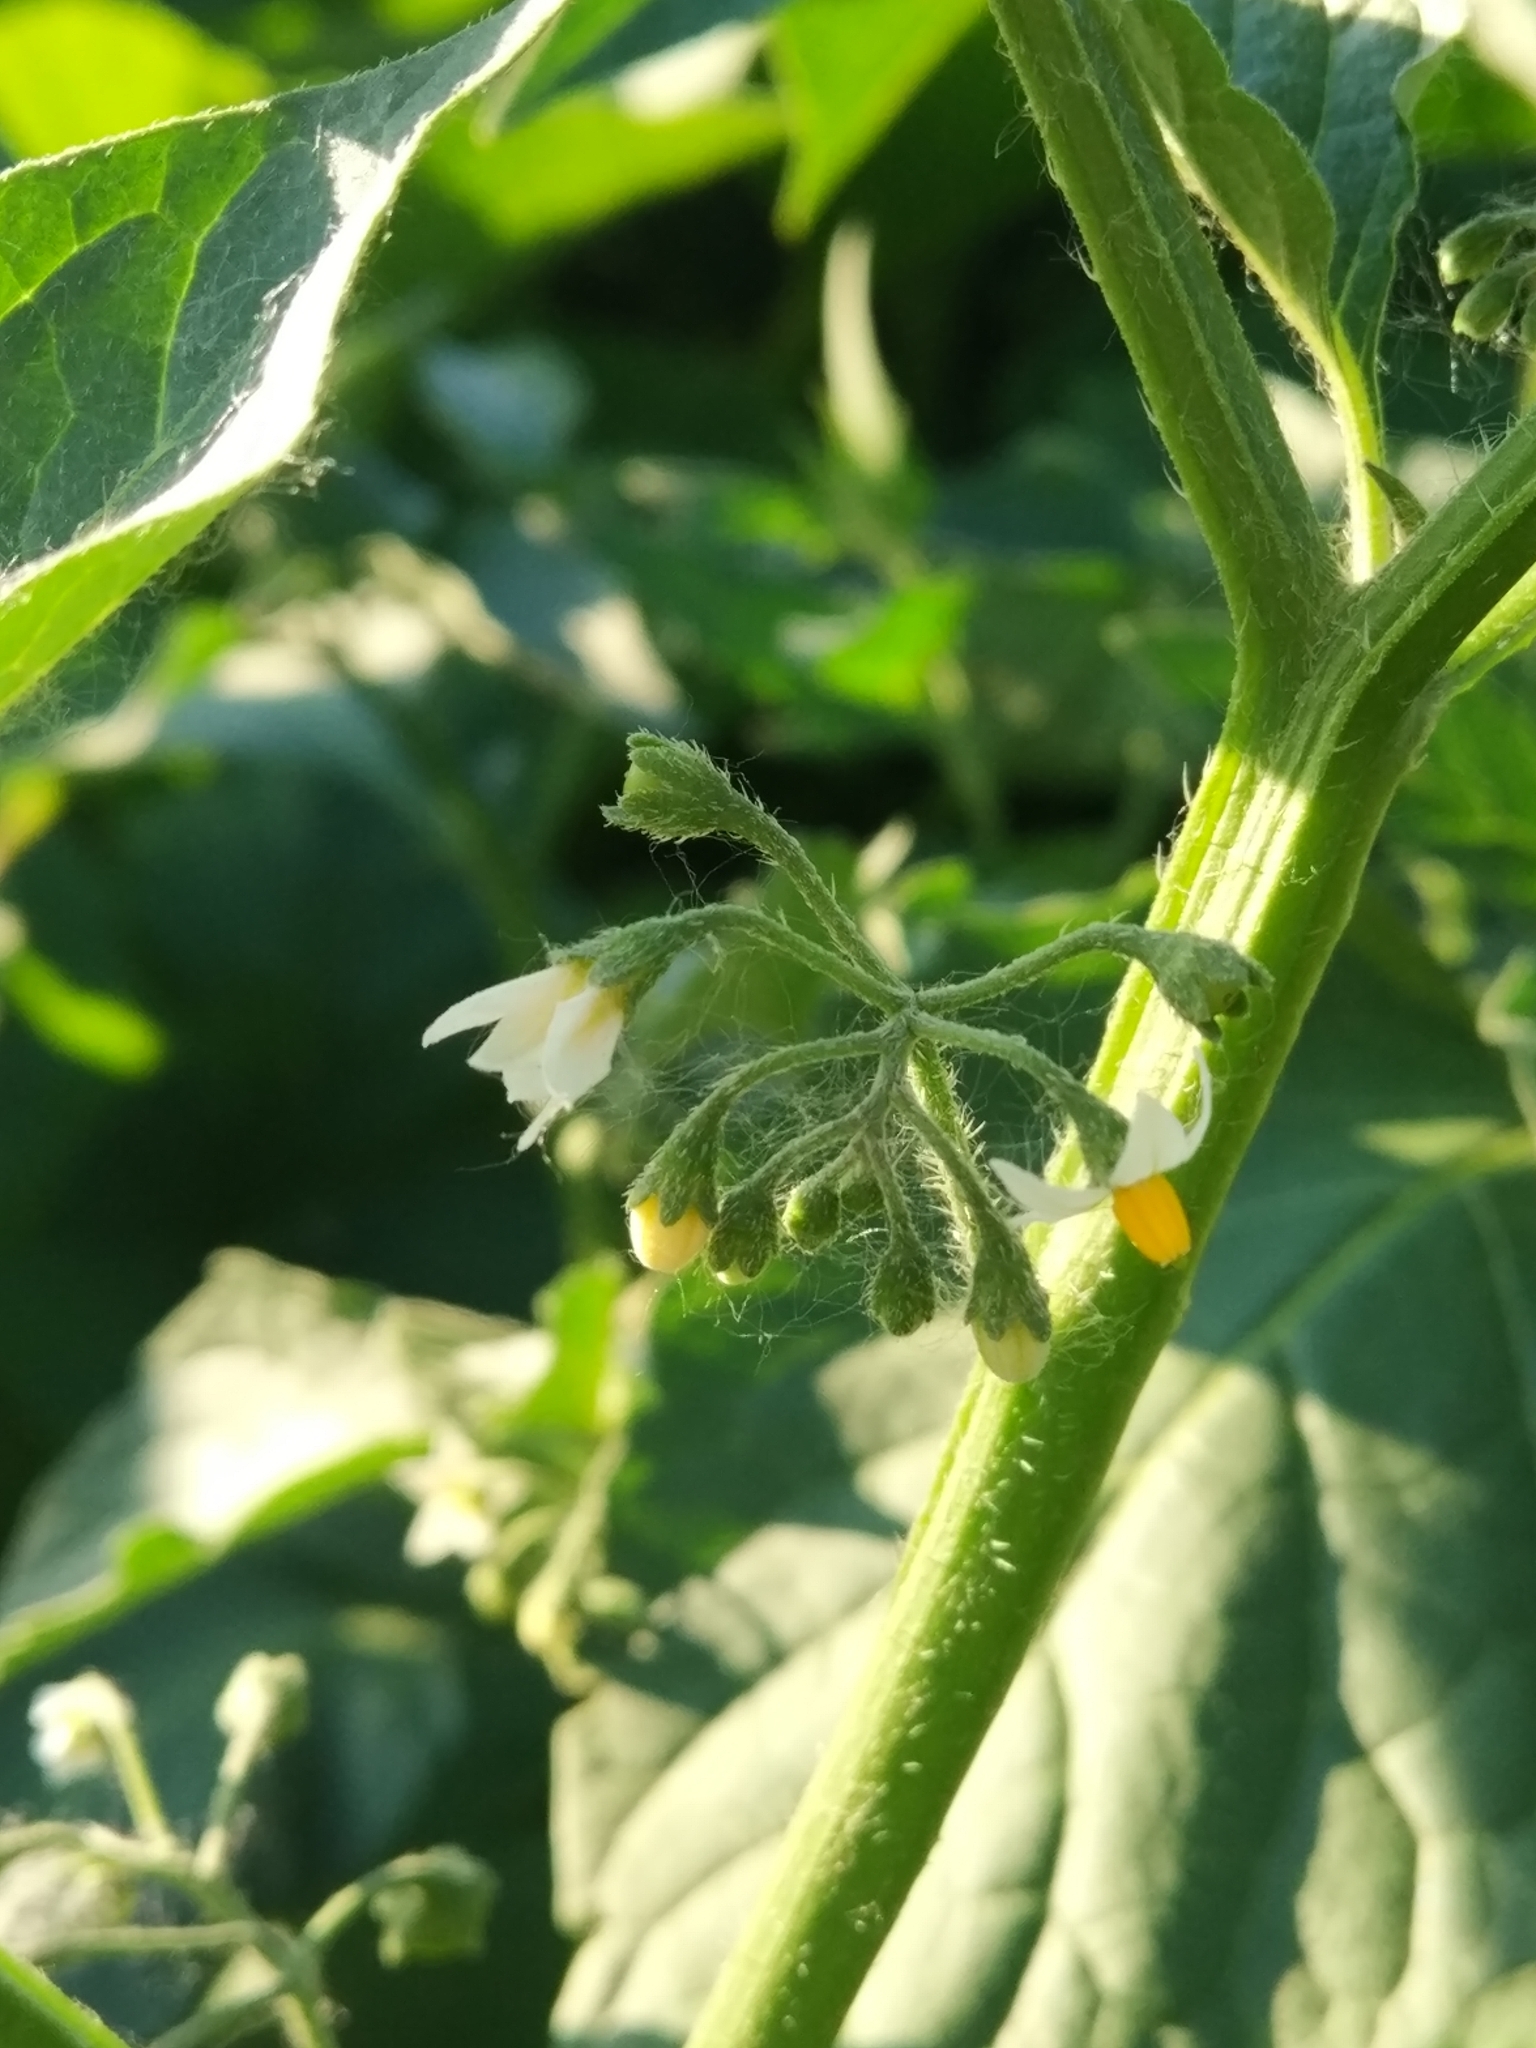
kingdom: Plantae
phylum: Tracheophyta
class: Magnoliopsida
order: Solanales
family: Solanaceae
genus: Solanum
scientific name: Solanum nigrum
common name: Black nightshade
